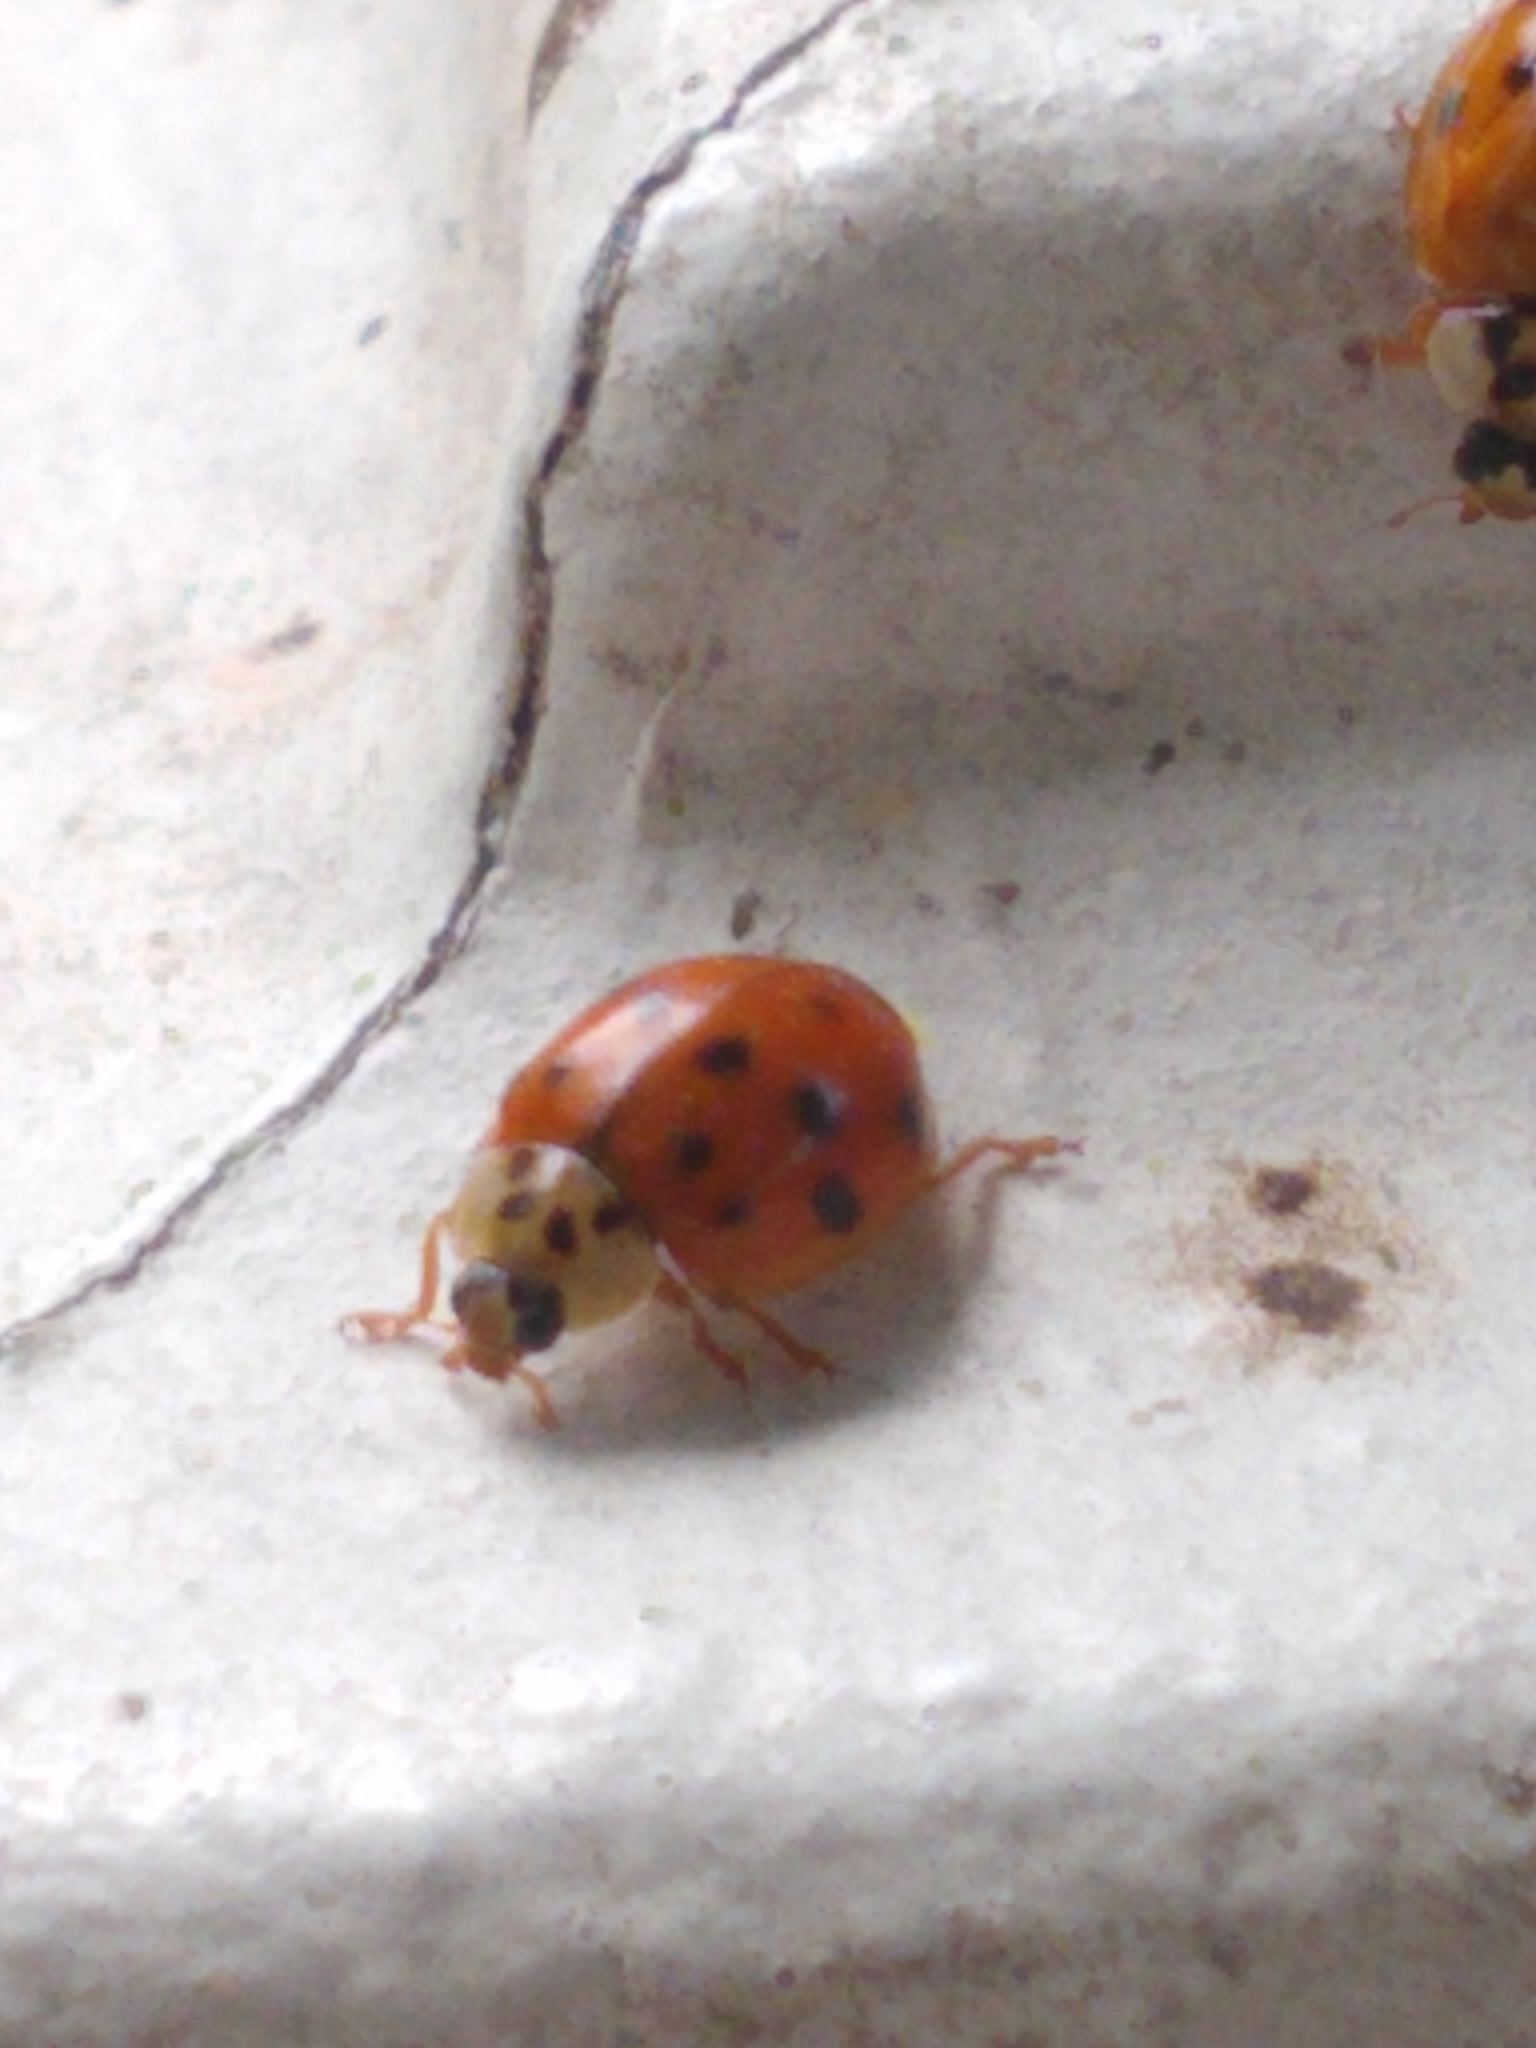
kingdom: Animalia
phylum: Arthropoda
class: Insecta
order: Coleoptera
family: Coccinellidae
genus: Harmonia
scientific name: Harmonia axyridis
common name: Harlequin ladybird
